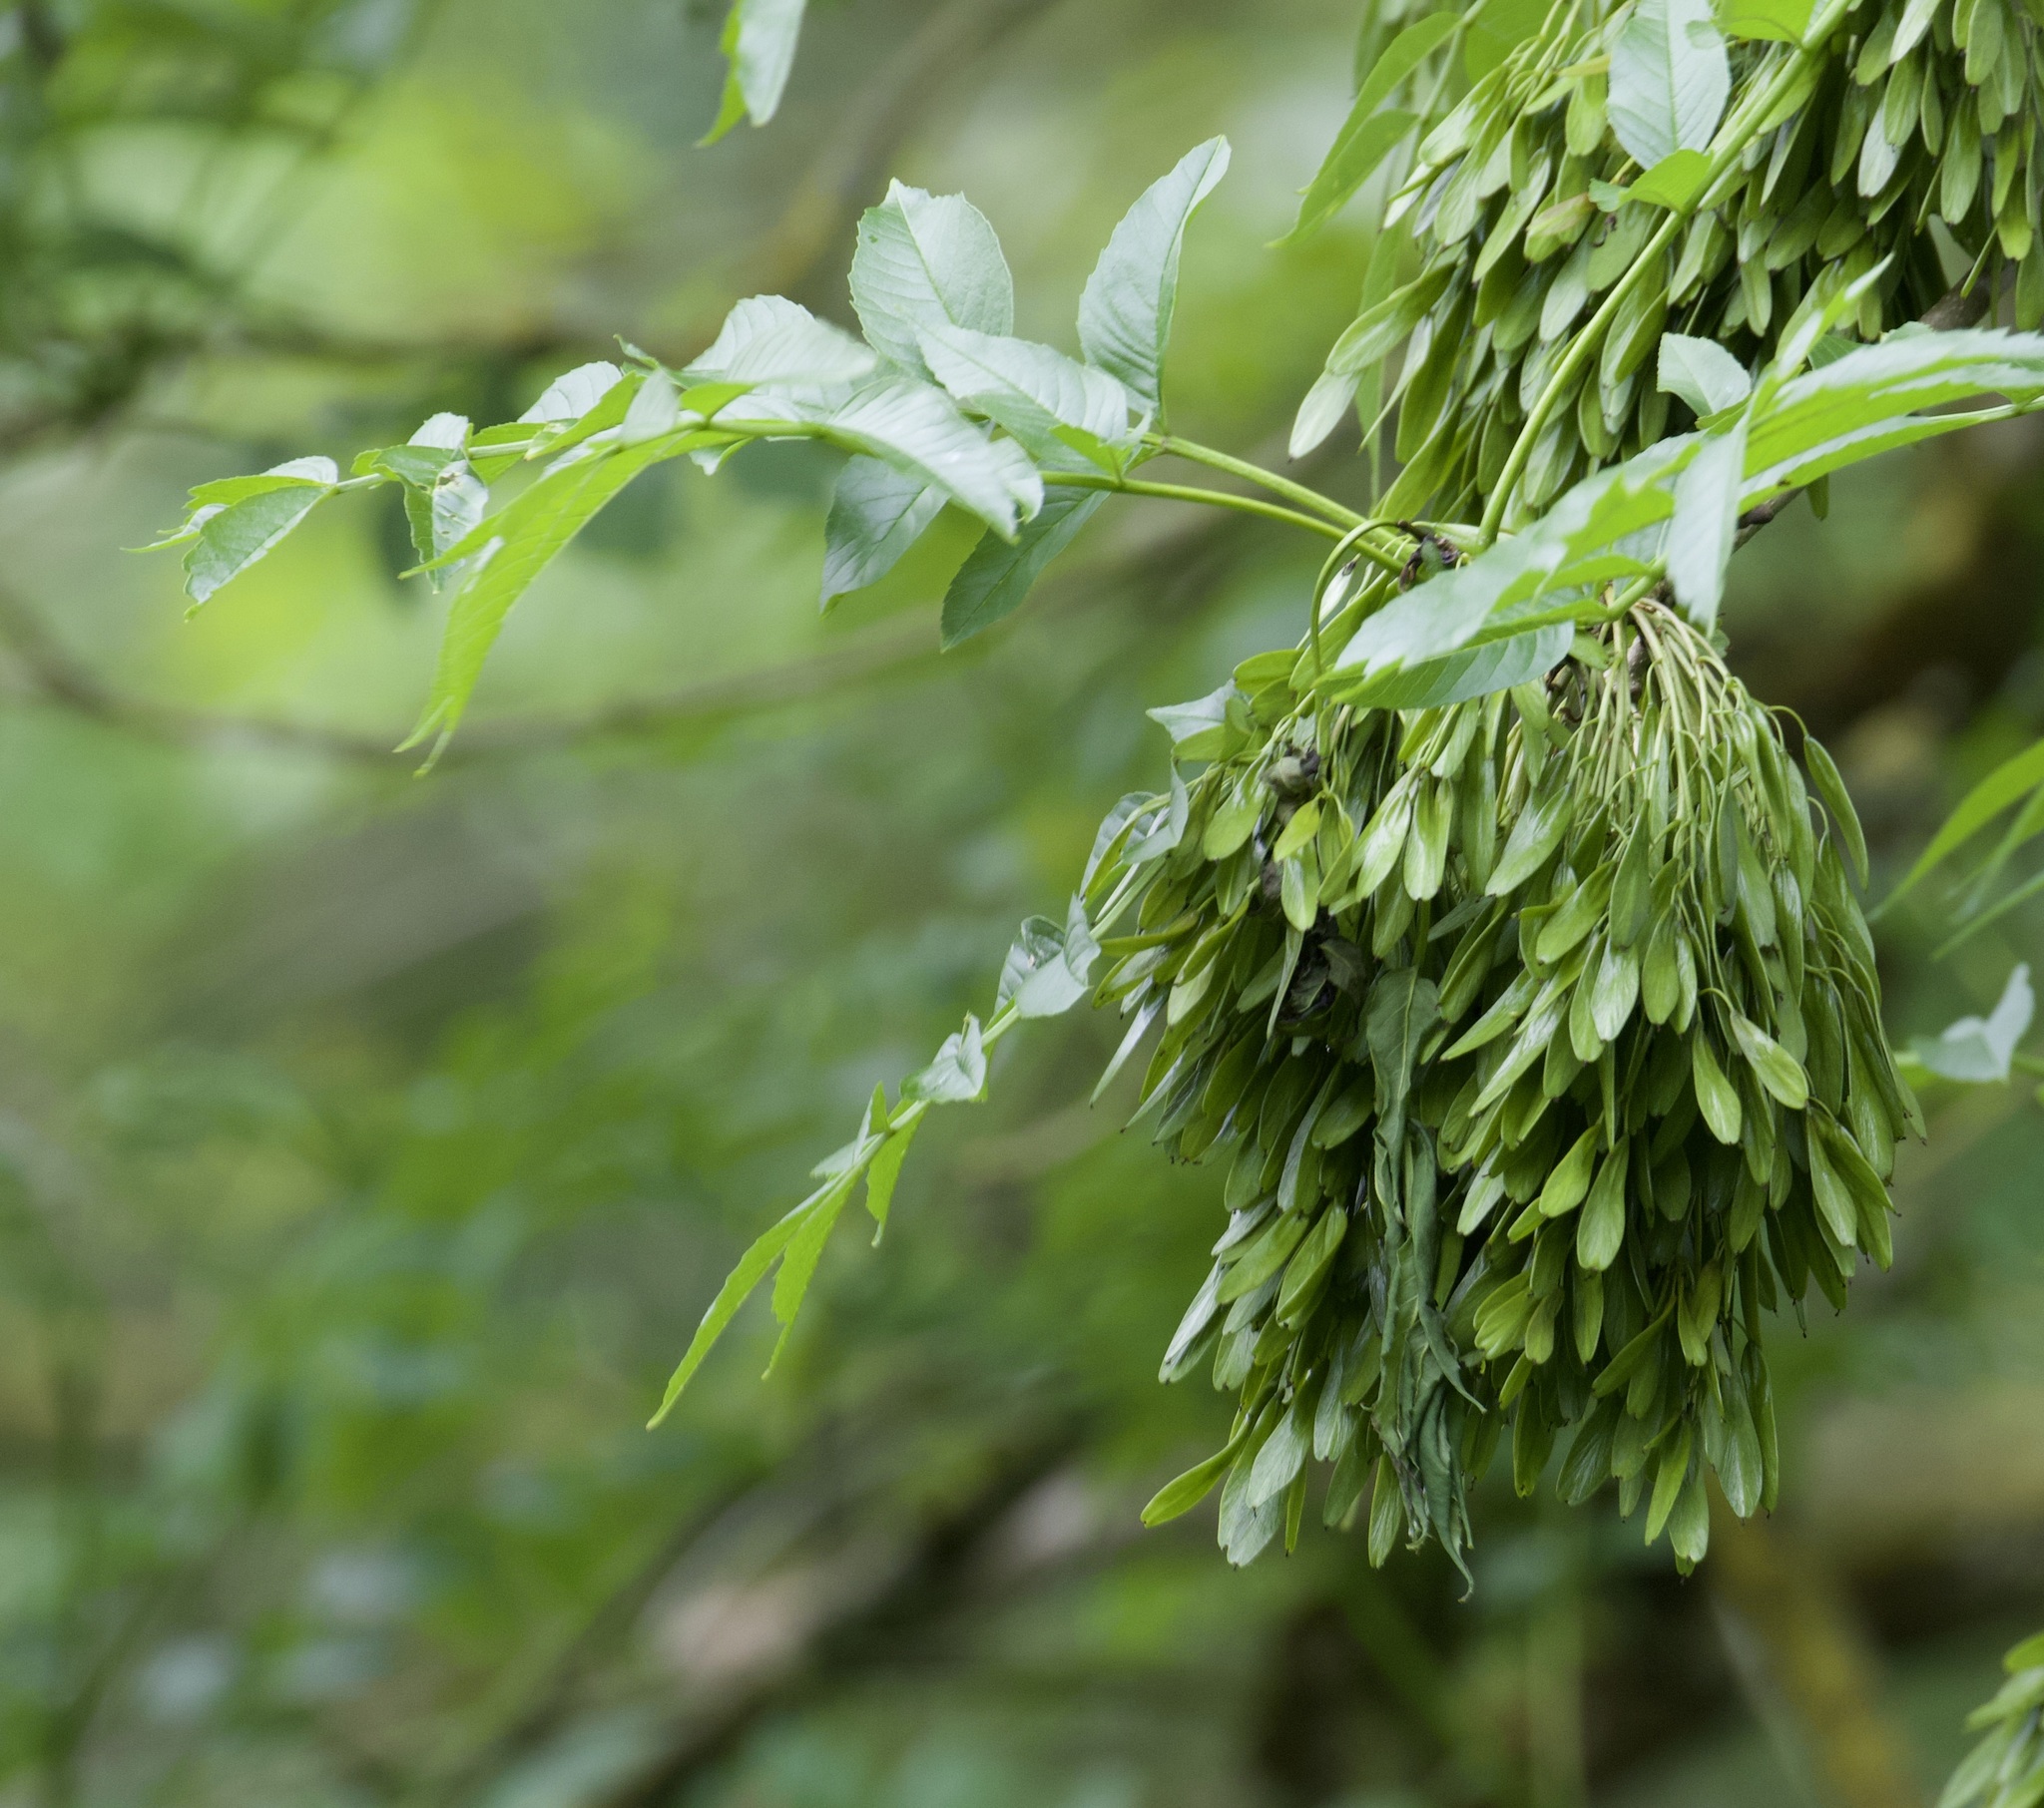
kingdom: Plantae
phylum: Tracheophyta
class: Magnoliopsida
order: Lamiales
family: Oleaceae
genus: Fraxinus
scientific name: Fraxinus excelsior
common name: European ash
